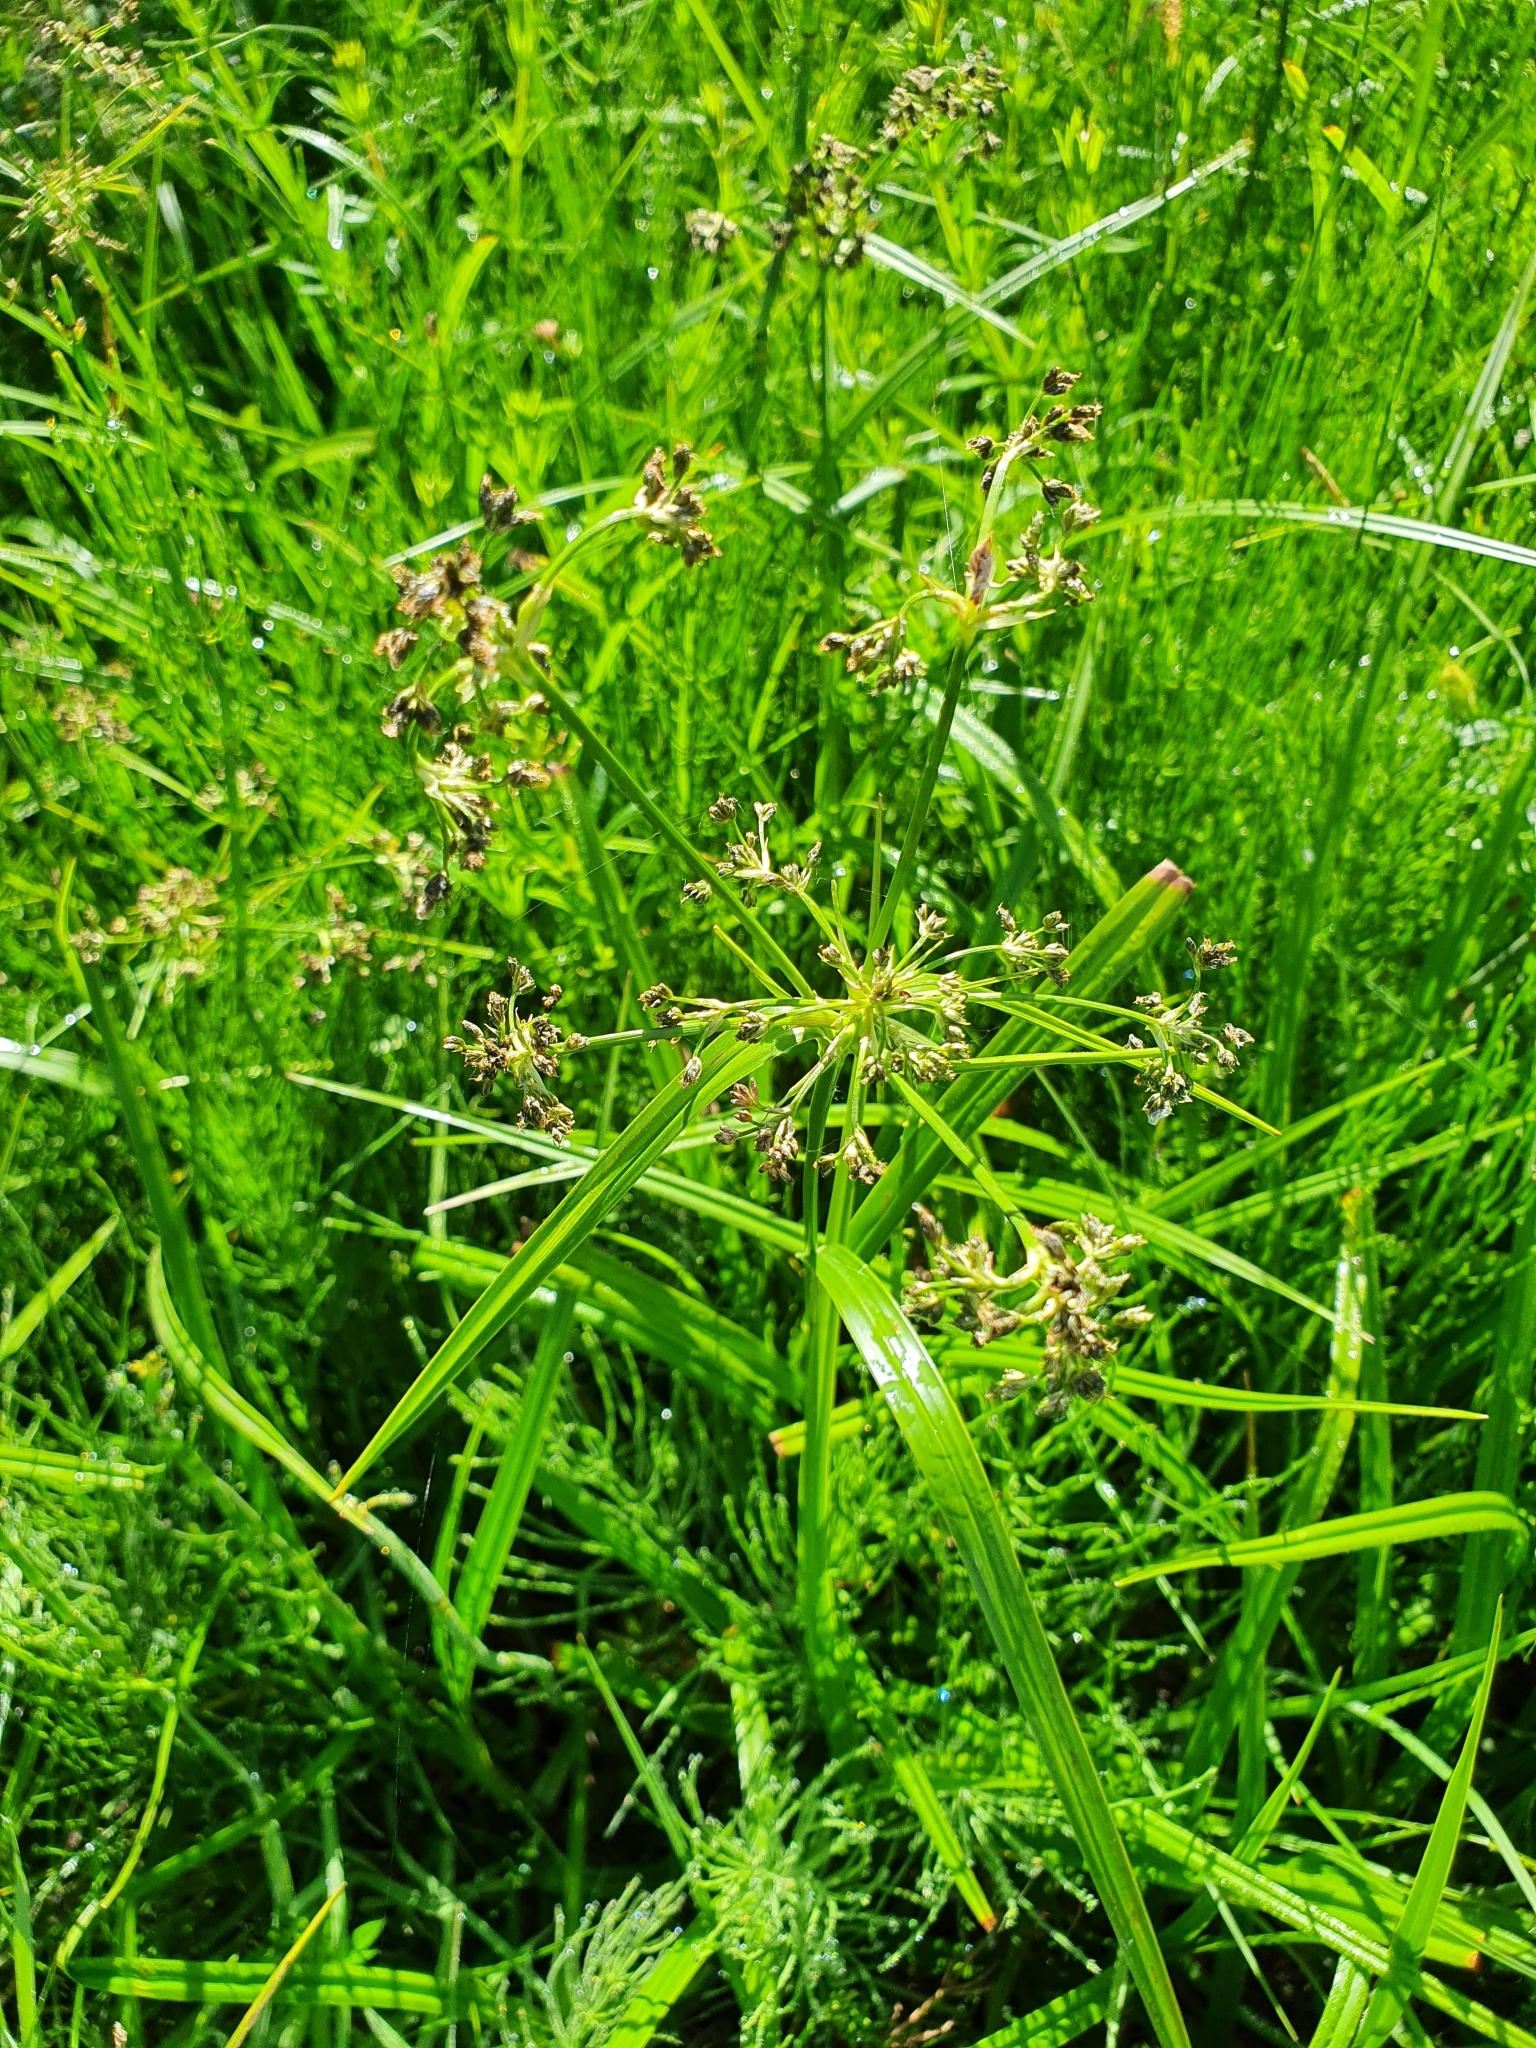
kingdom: Plantae
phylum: Tracheophyta
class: Liliopsida
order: Poales
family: Cyperaceae
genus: Scirpus
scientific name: Scirpus sylvaticus
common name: Wood club-rush
